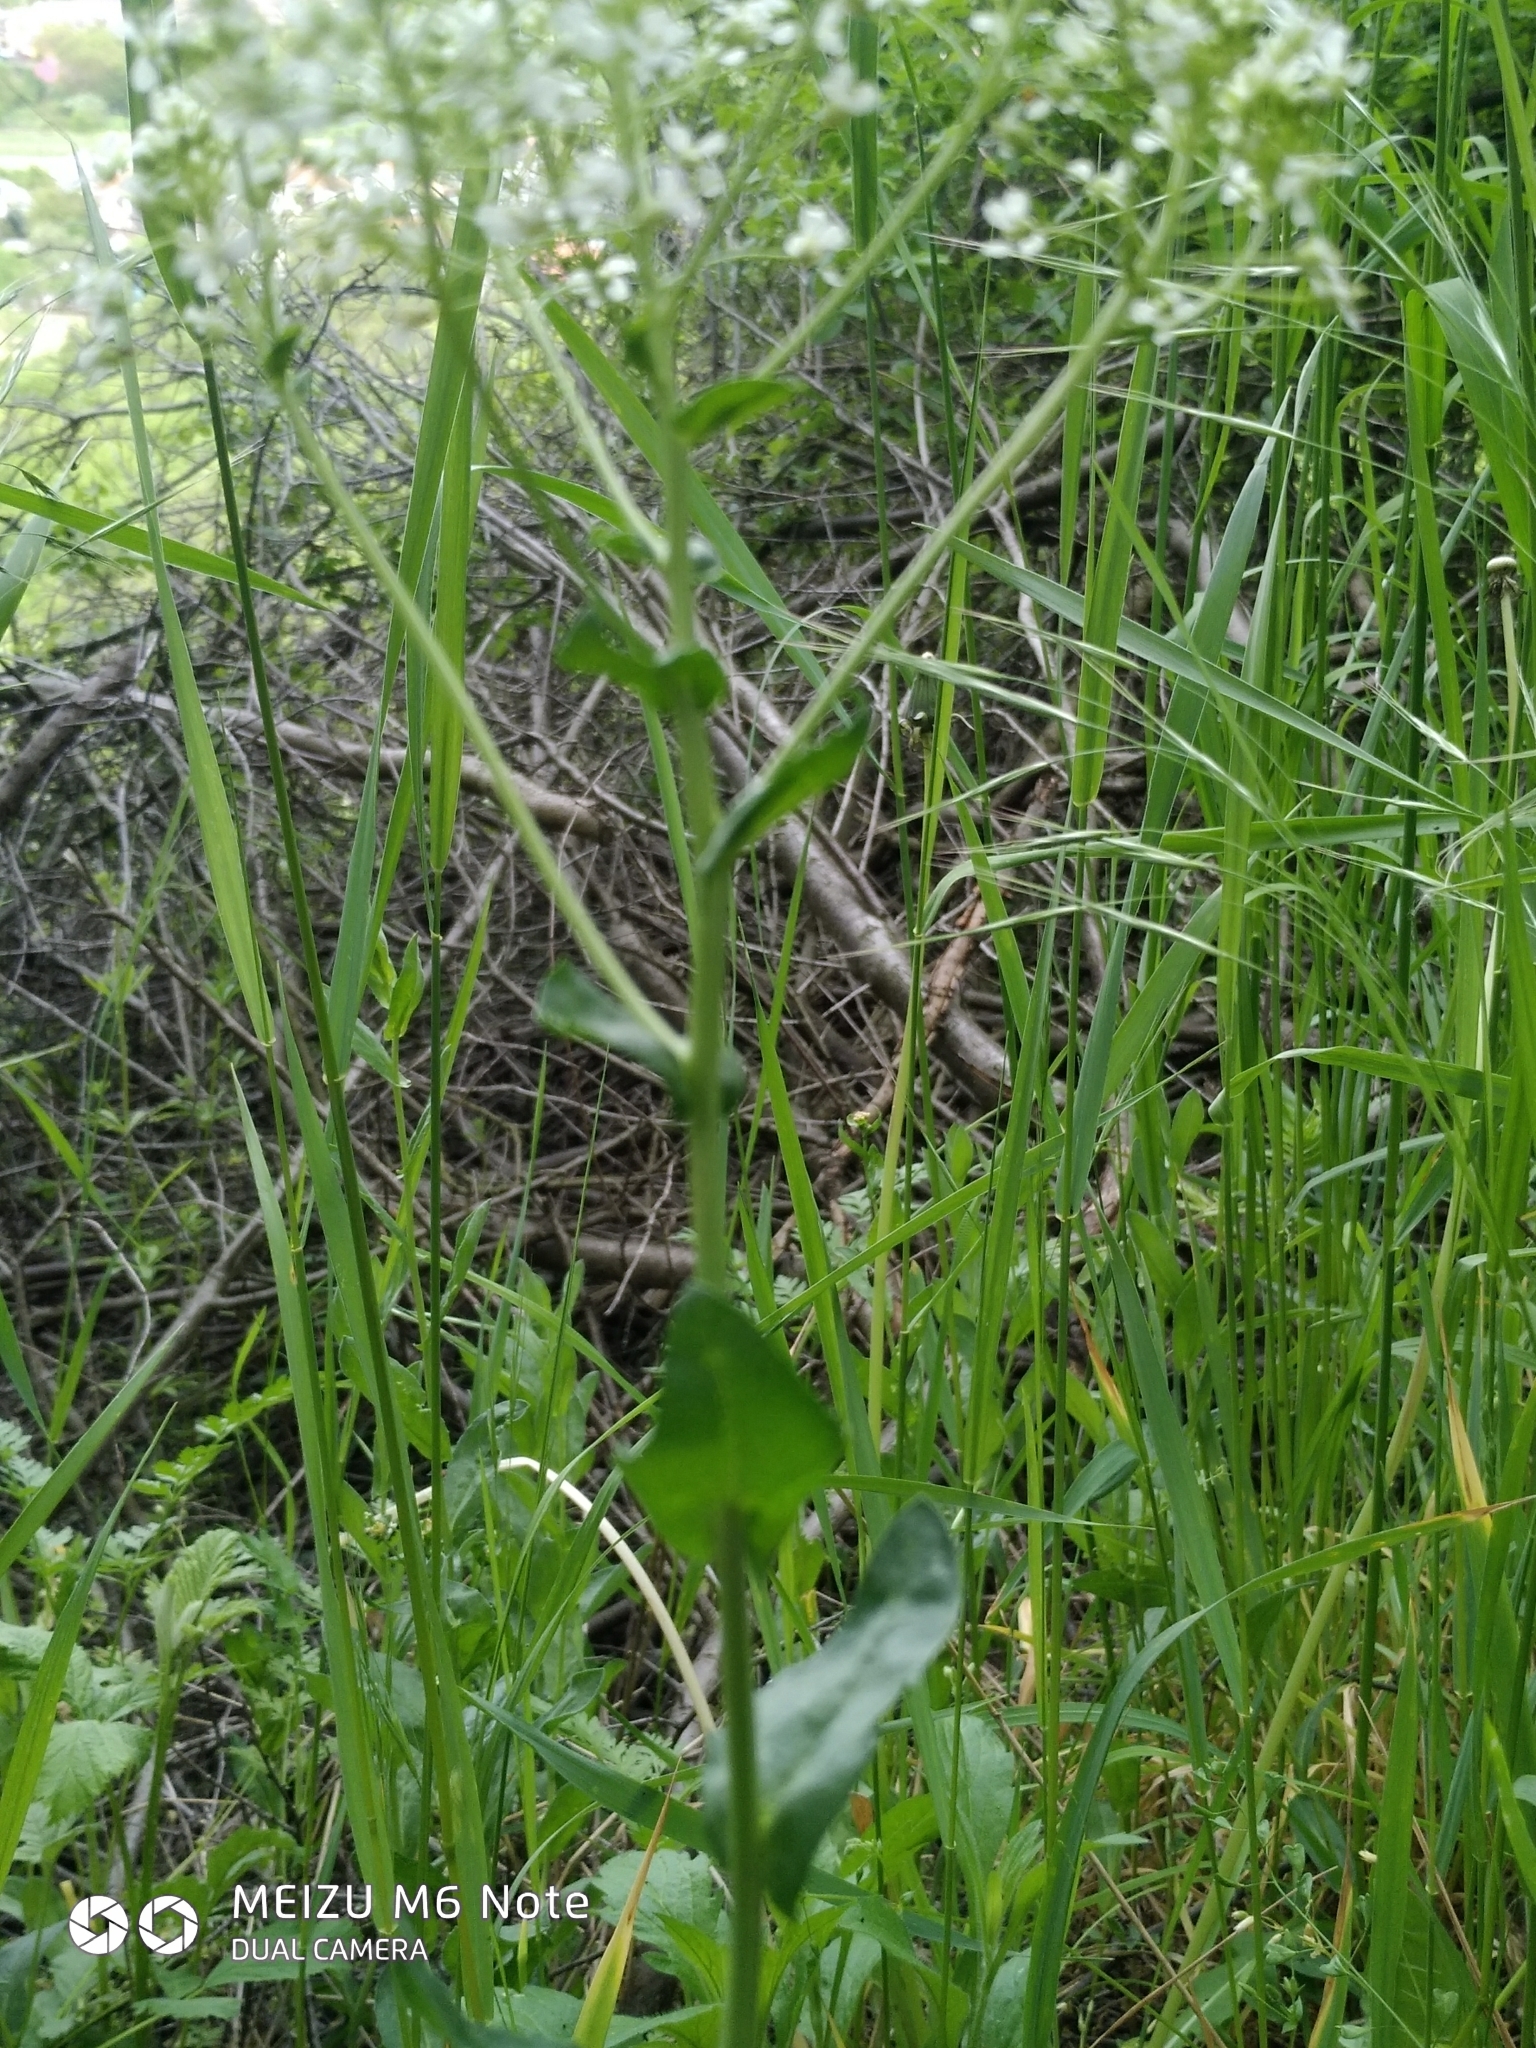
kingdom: Plantae
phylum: Tracheophyta
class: Magnoliopsida
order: Brassicales
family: Brassicaceae
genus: Lepidium
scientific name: Lepidium draba
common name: Hoary cress
